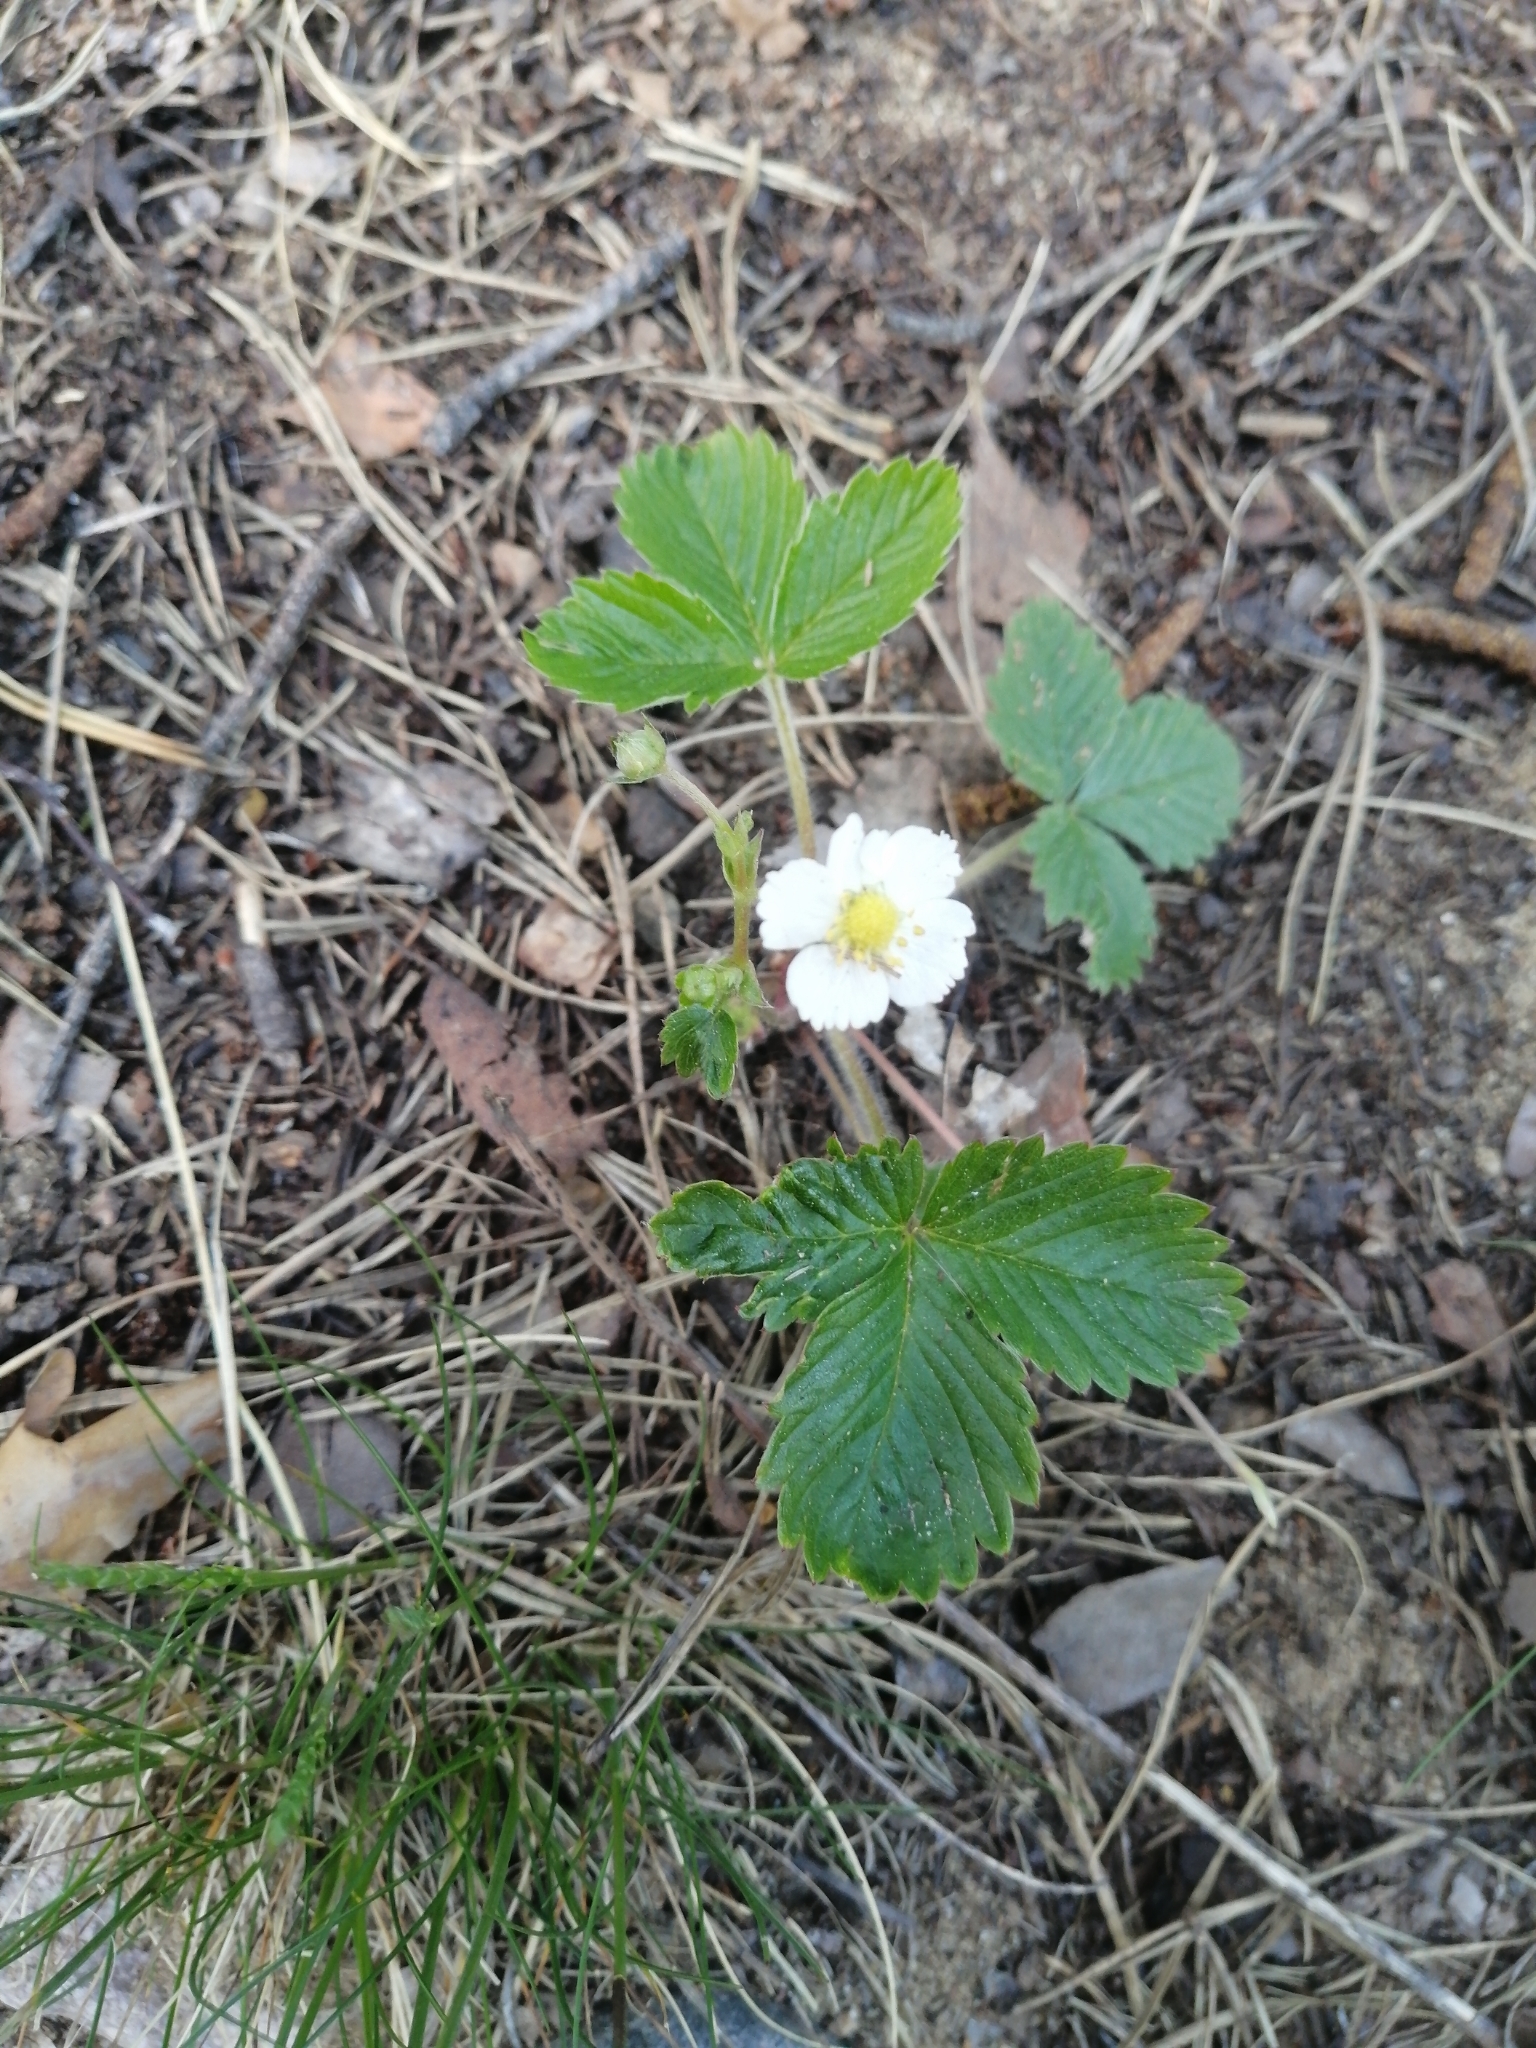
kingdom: Plantae
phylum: Tracheophyta
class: Magnoliopsida
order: Rosales
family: Rosaceae
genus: Fragaria
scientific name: Fragaria vesca
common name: Wild strawberry
